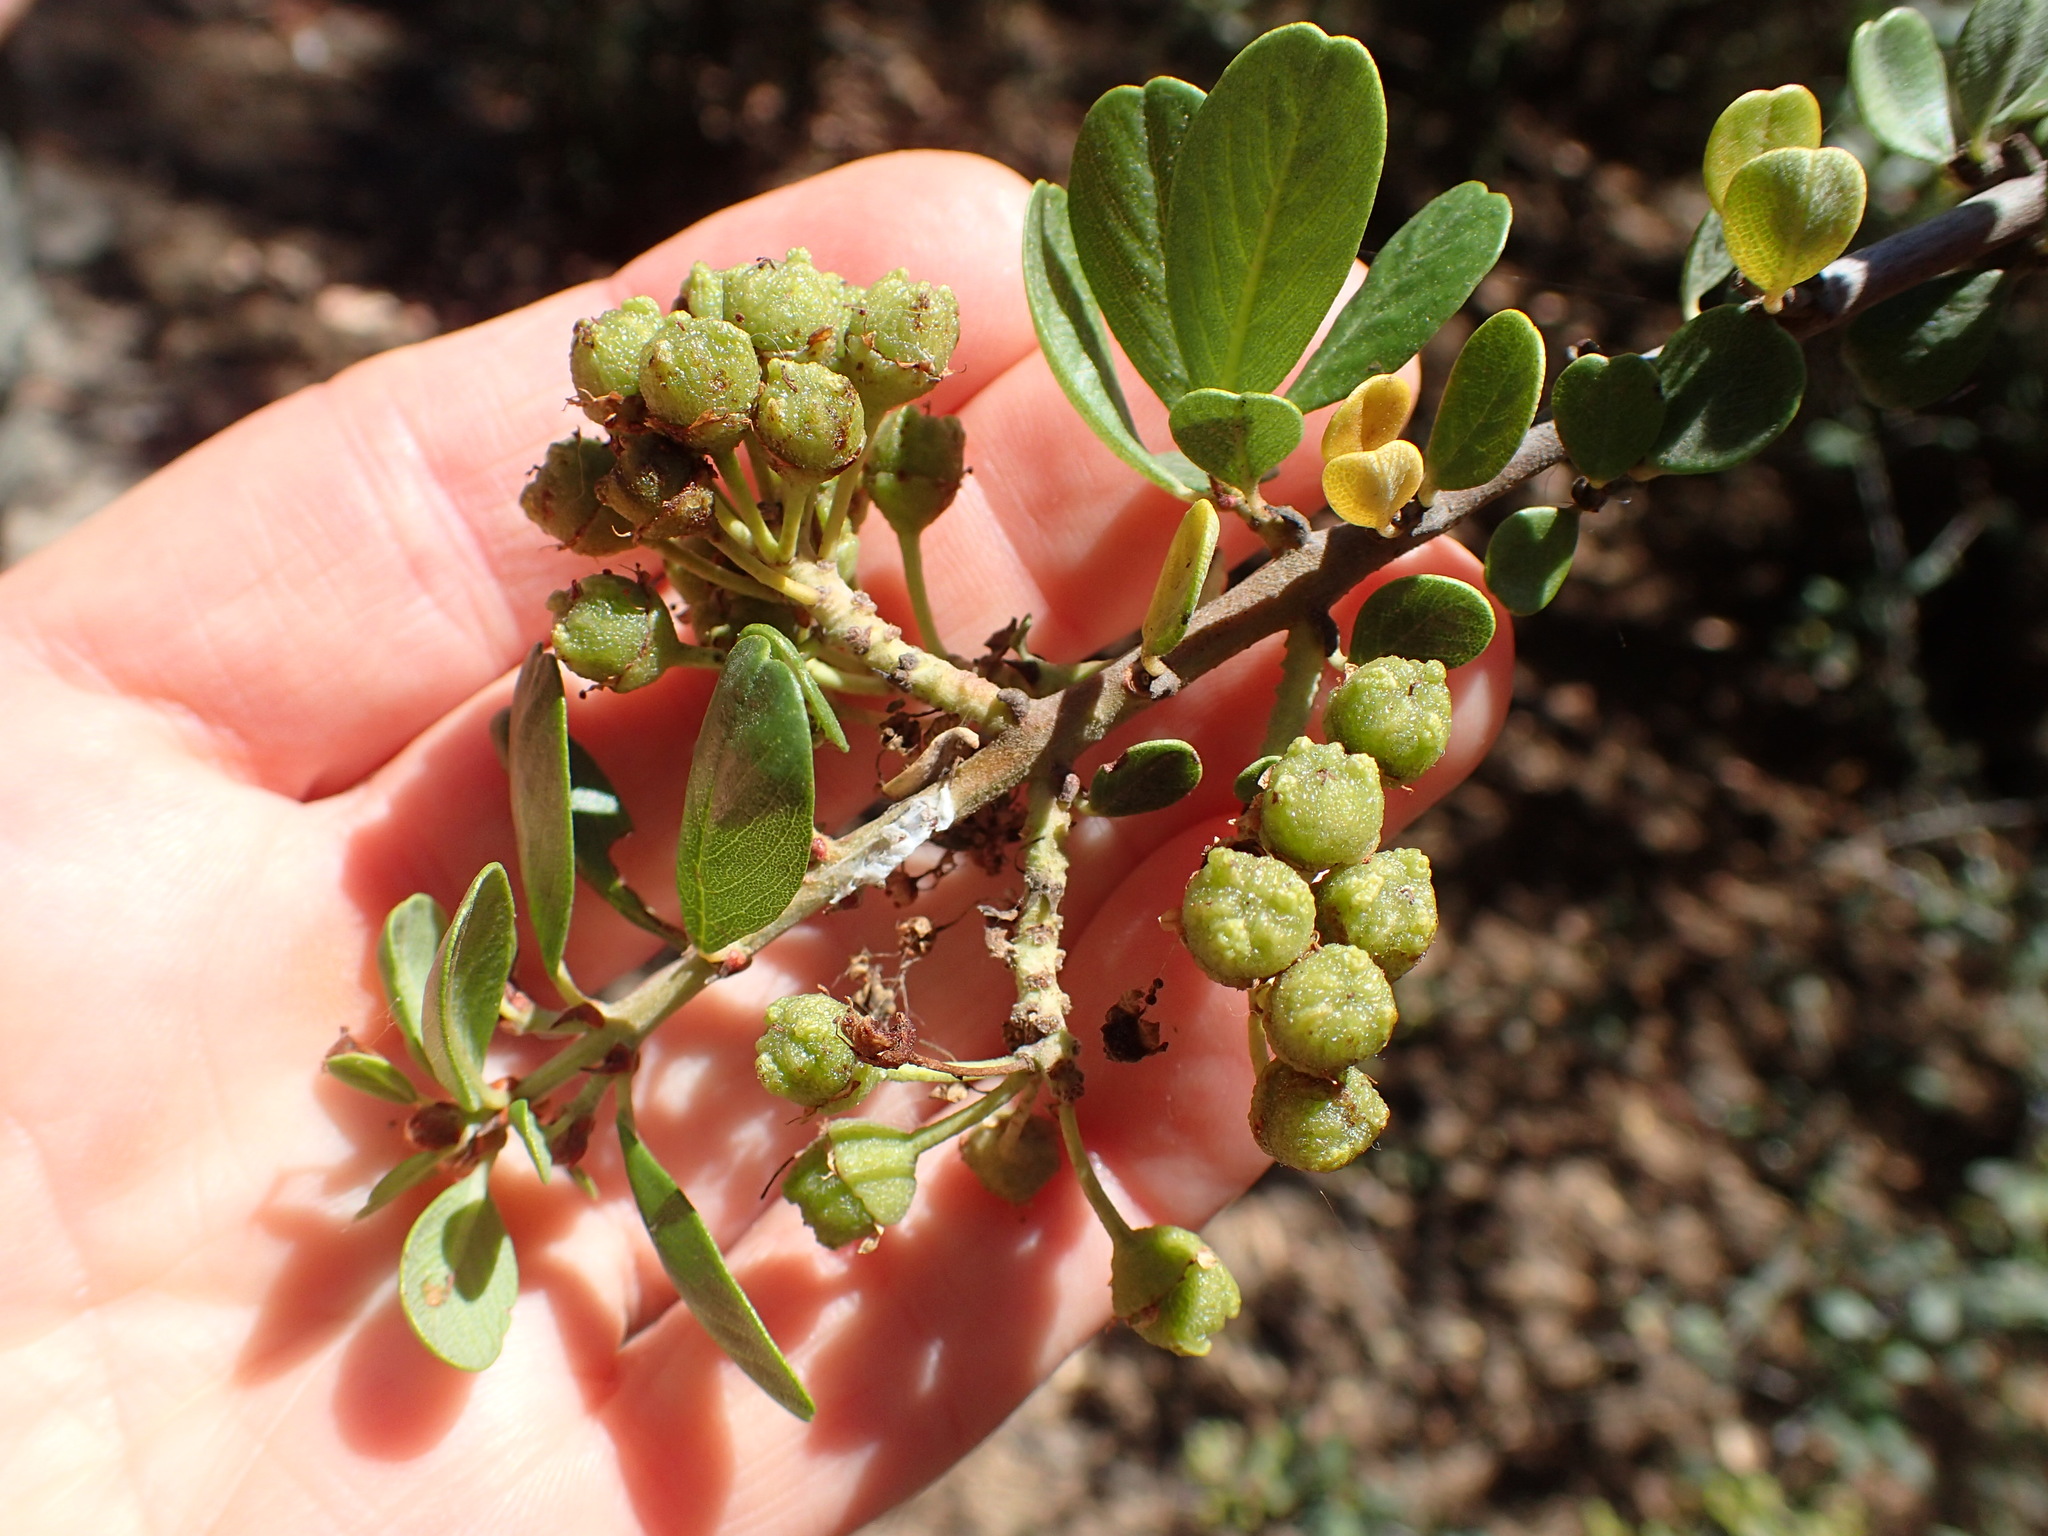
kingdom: Plantae
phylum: Tracheophyta
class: Magnoliopsida
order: Rosales
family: Rhamnaceae
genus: Ceanothus
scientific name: Ceanothus cuneatus
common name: Cuneate ceanothus
